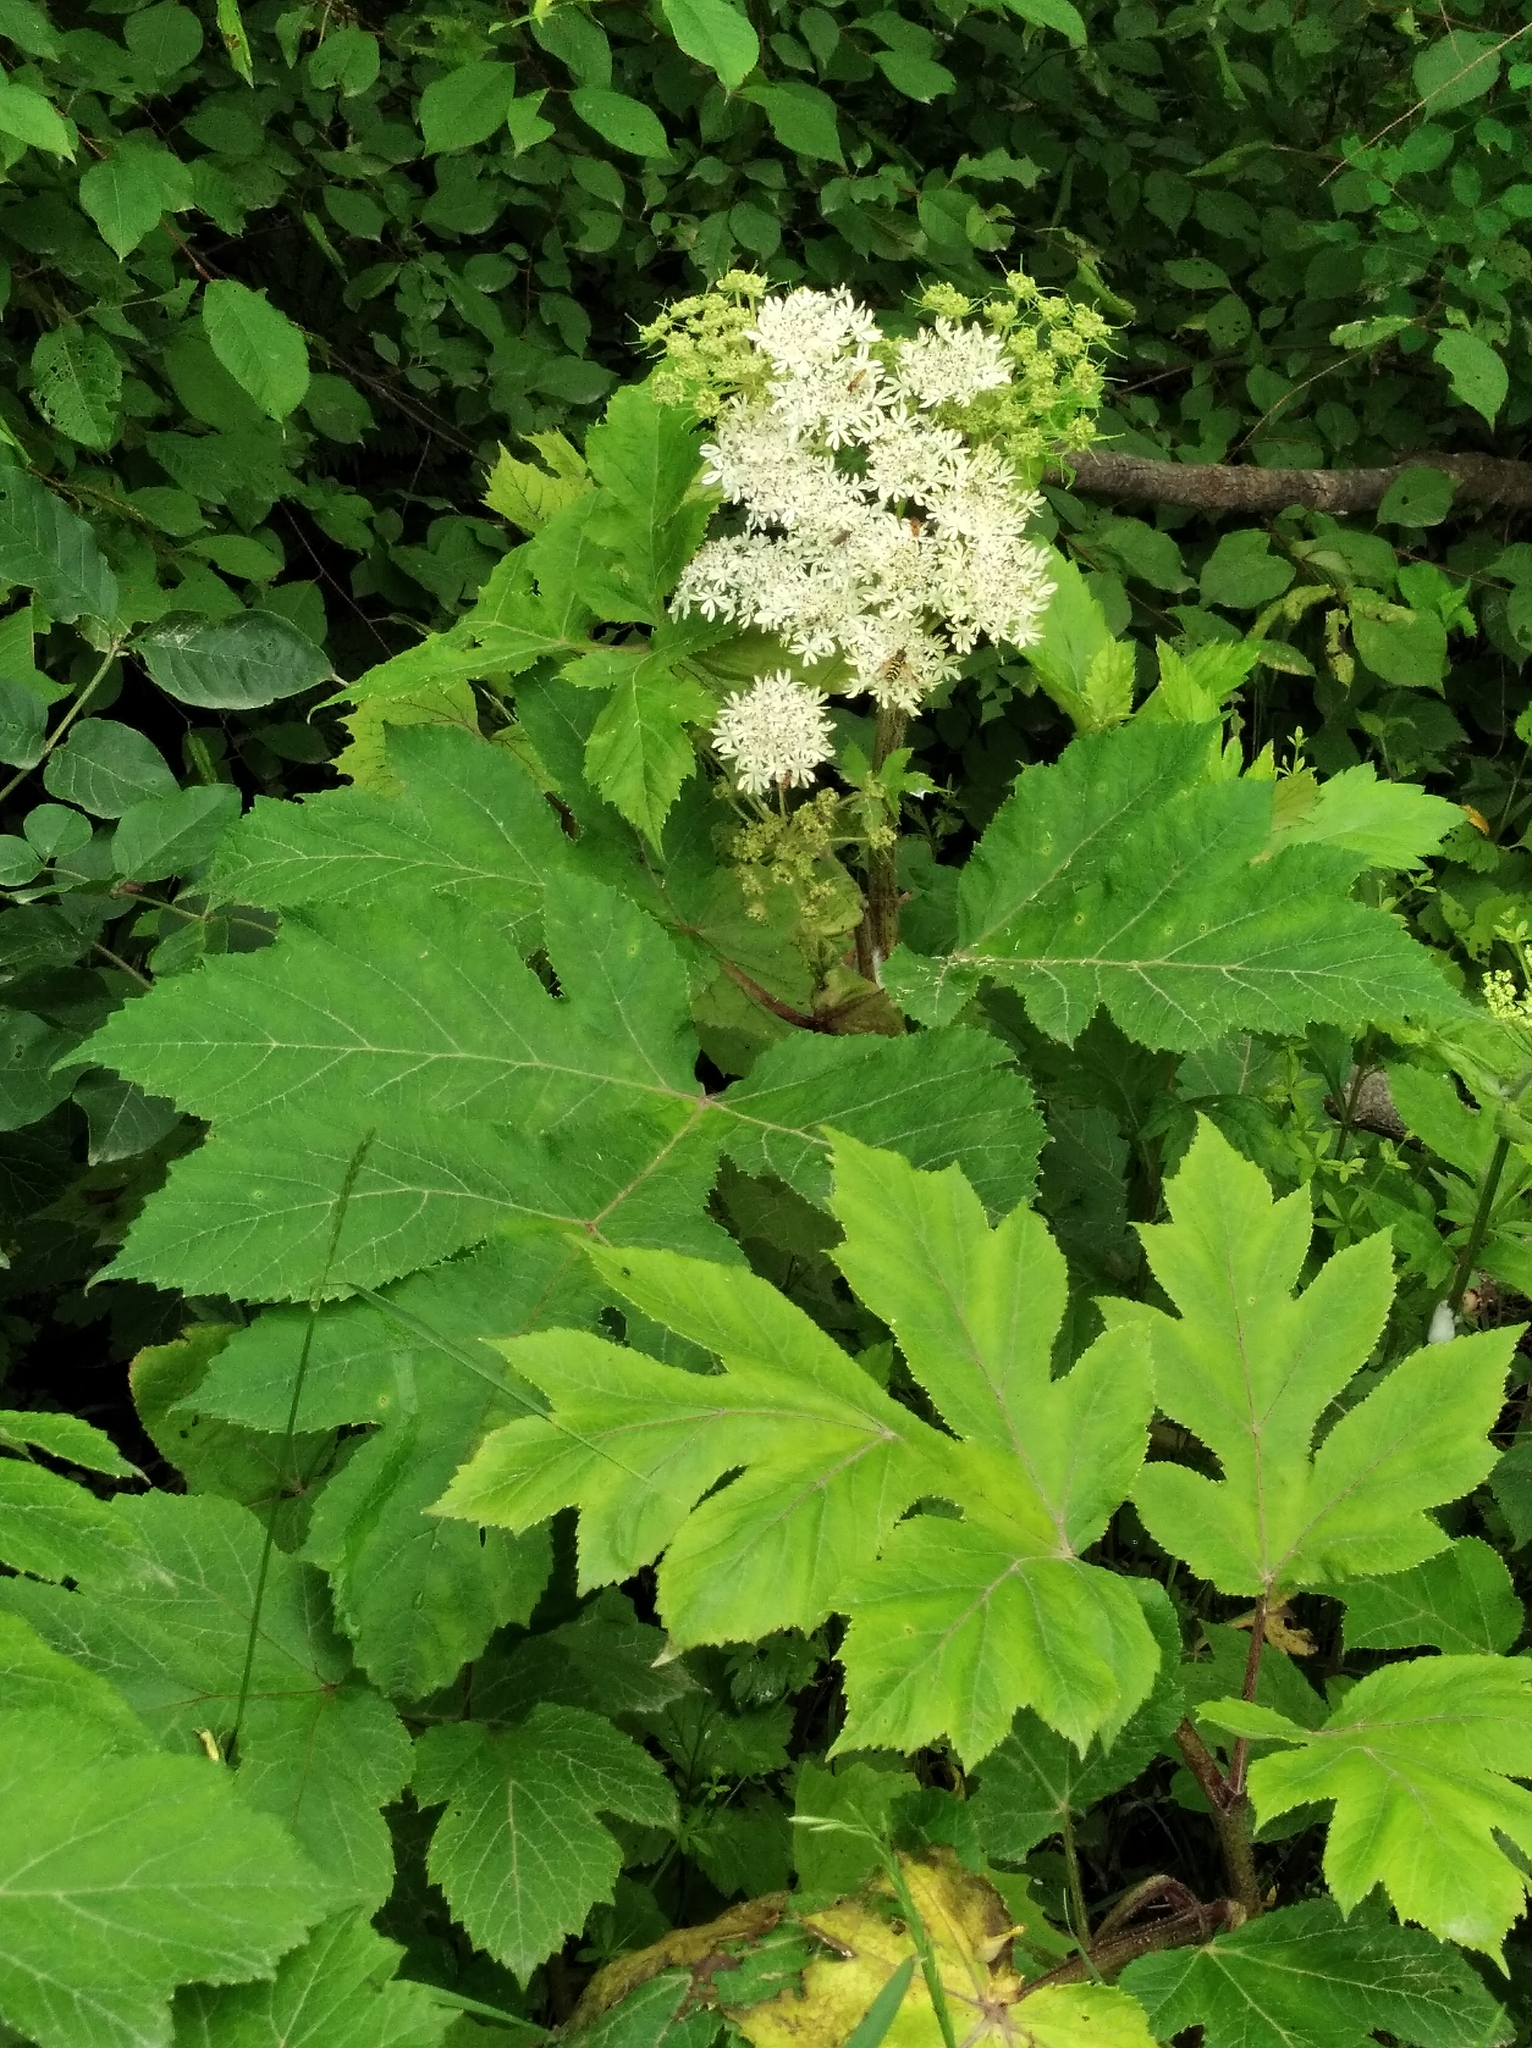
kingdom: Plantae
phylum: Tracheophyta
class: Magnoliopsida
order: Apiales
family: Apiaceae
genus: Heracleum
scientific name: Heracleum dissectum
